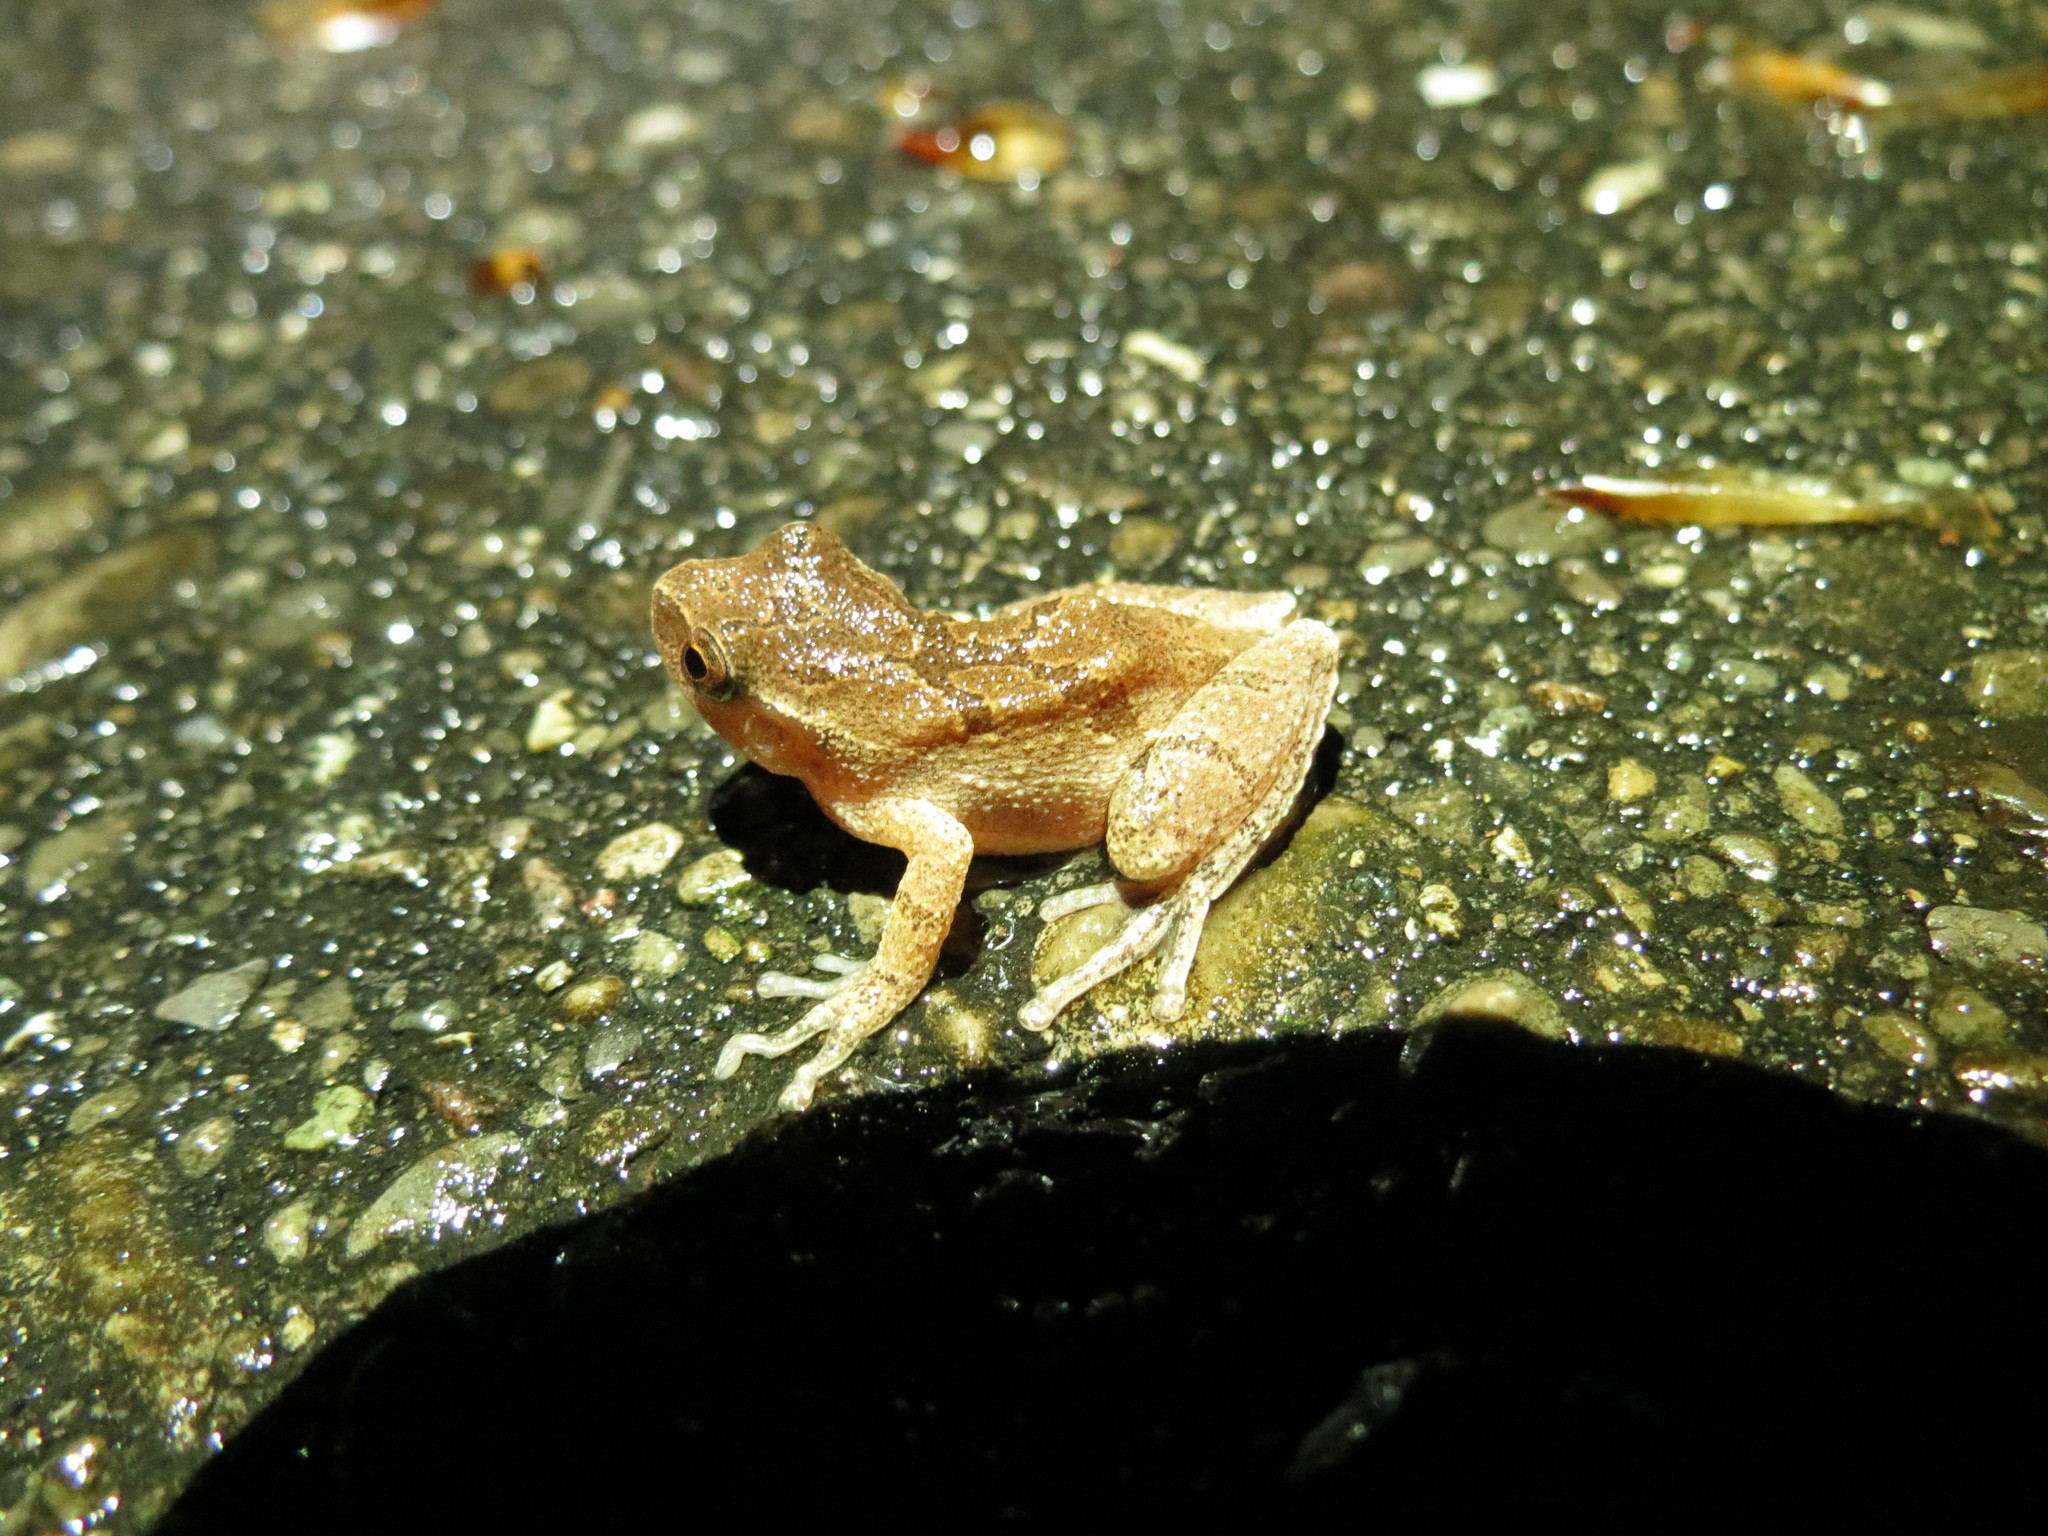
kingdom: Animalia
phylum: Chordata
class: Amphibia
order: Anura
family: Hylidae
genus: Pseudacris
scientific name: Pseudacris crucifer
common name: Spring peeper
